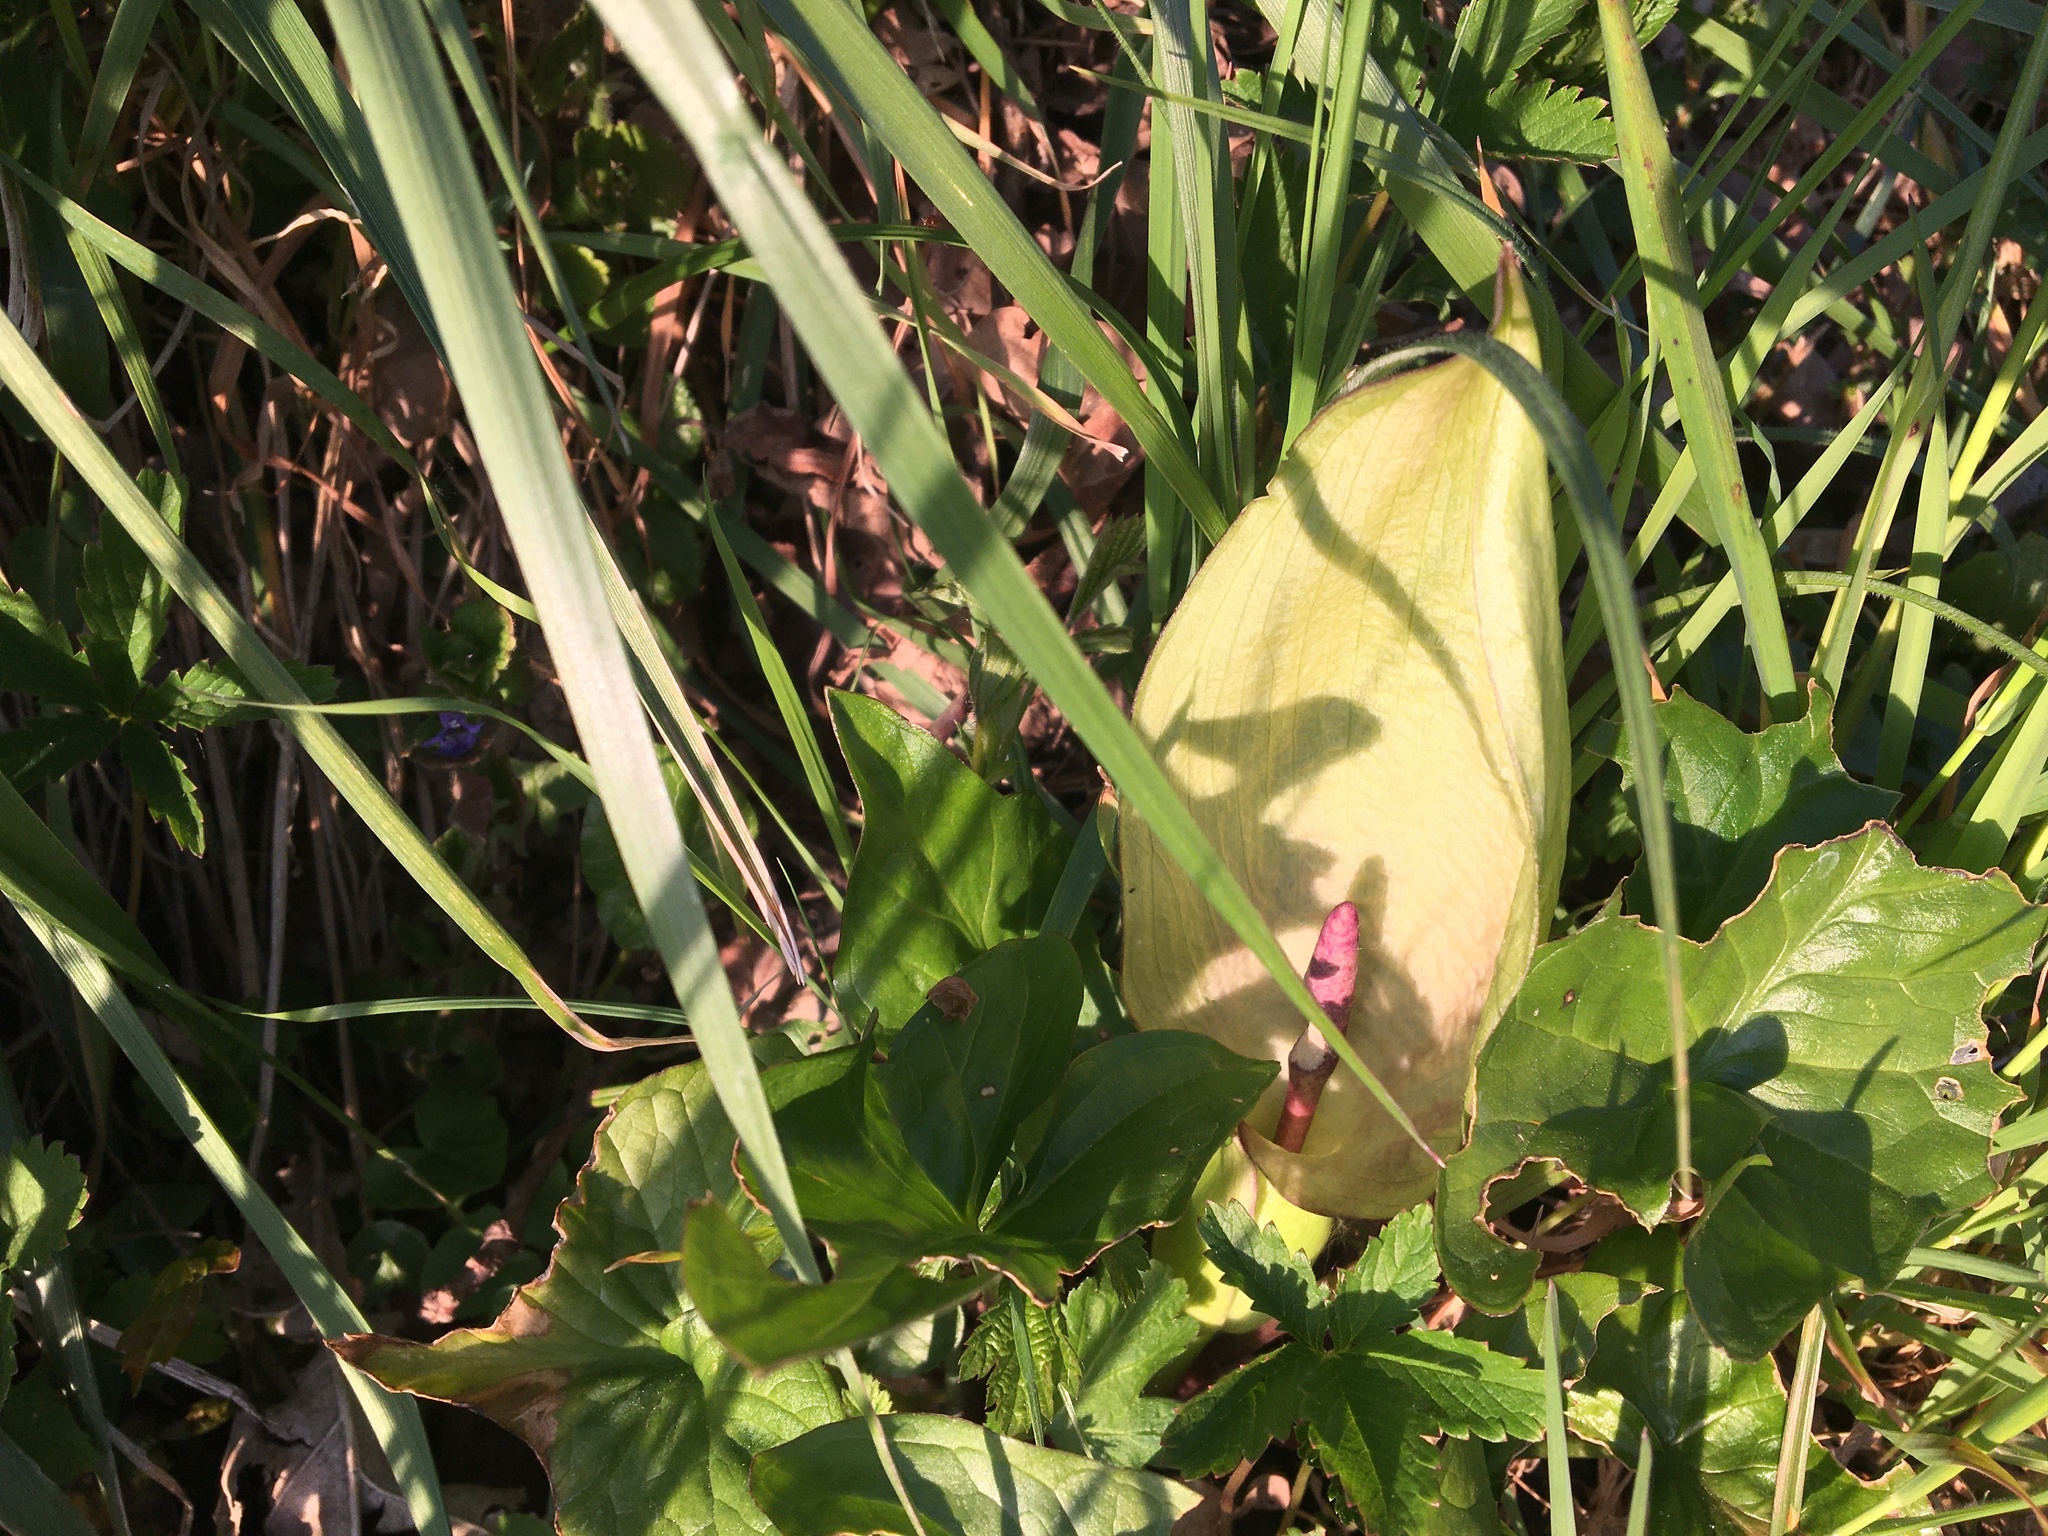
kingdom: Plantae
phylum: Tracheophyta
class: Liliopsida
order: Alismatales
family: Araceae
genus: Arum
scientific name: Arum maculatum
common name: Lords-and-ladies
